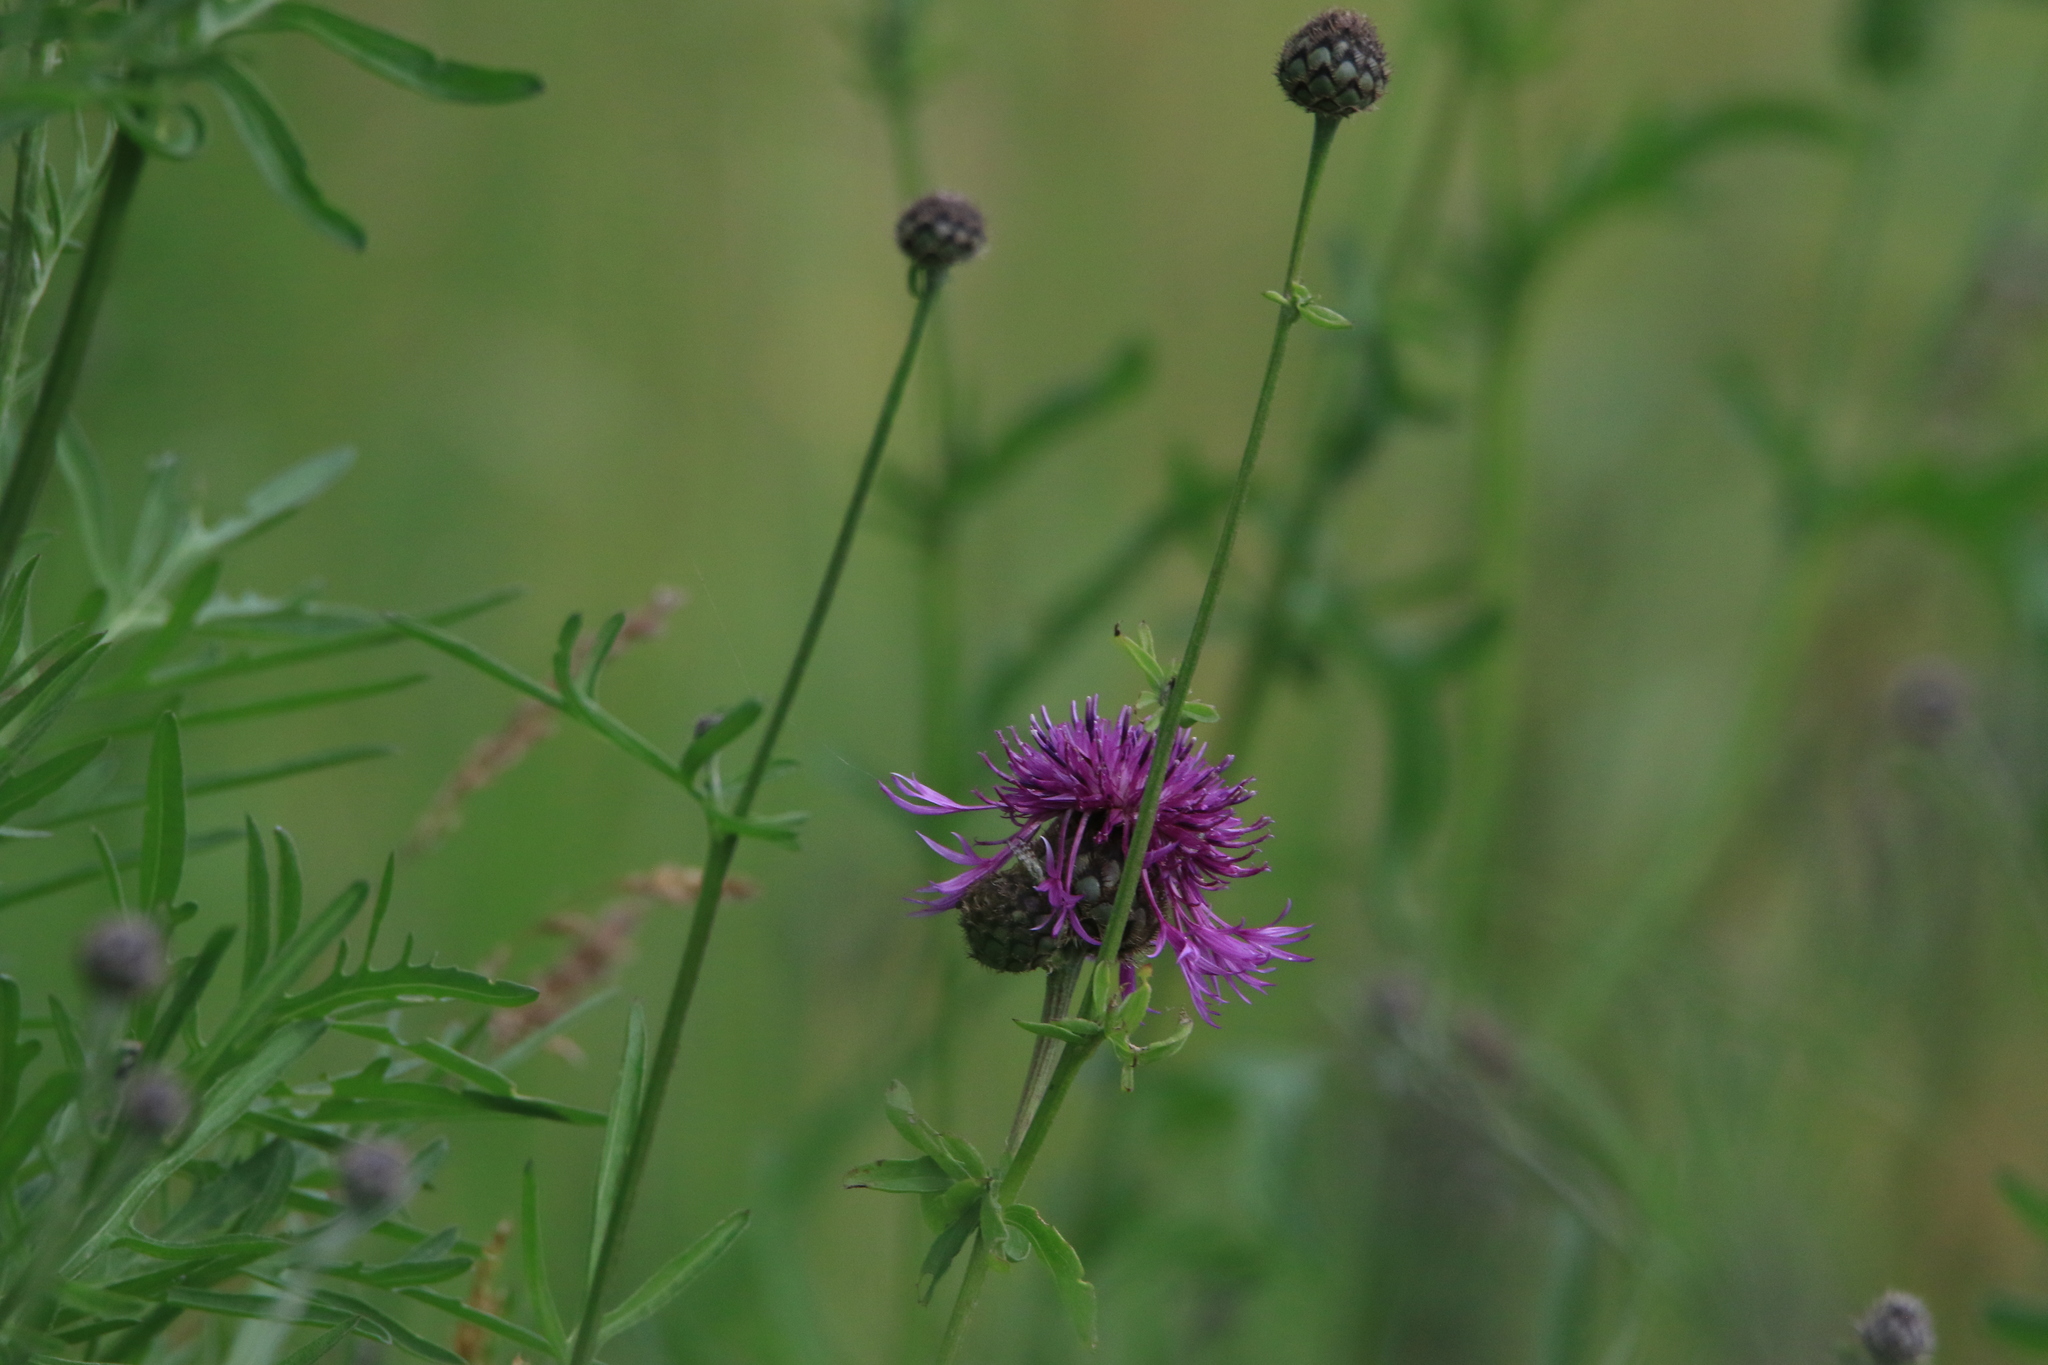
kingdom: Plantae
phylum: Tracheophyta
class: Magnoliopsida
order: Asterales
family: Asteraceae
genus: Centaurea
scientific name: Centaurea scabiosa
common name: Greater knapweed
